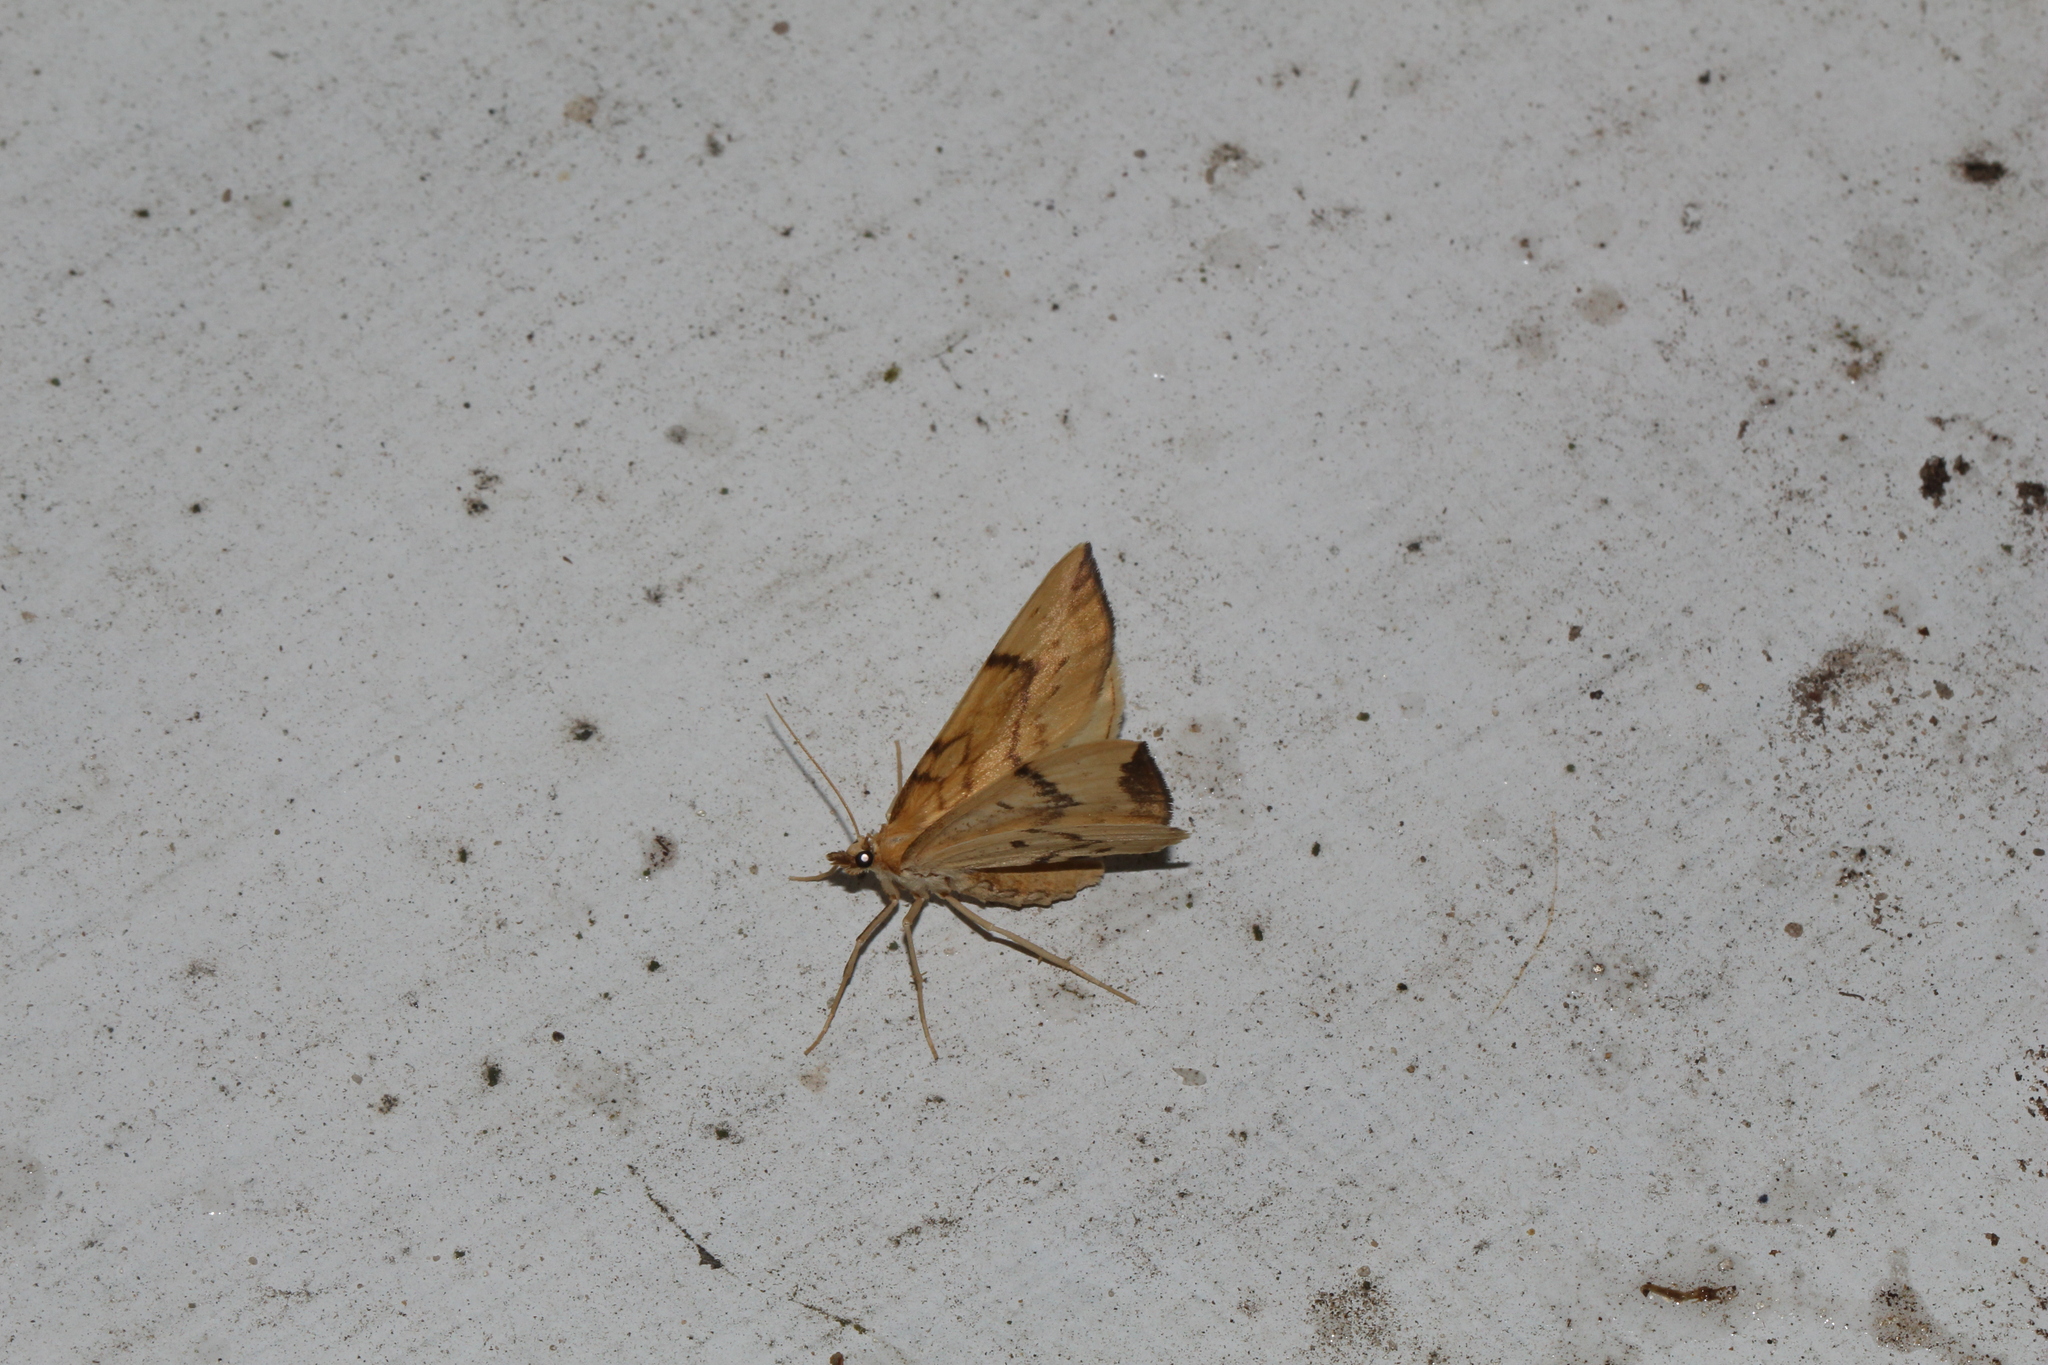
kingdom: Animalia
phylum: Arthropoda
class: Insecta
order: Lepidoptera
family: Geometridae
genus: Eulithis
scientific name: Eulithis pyraliata
